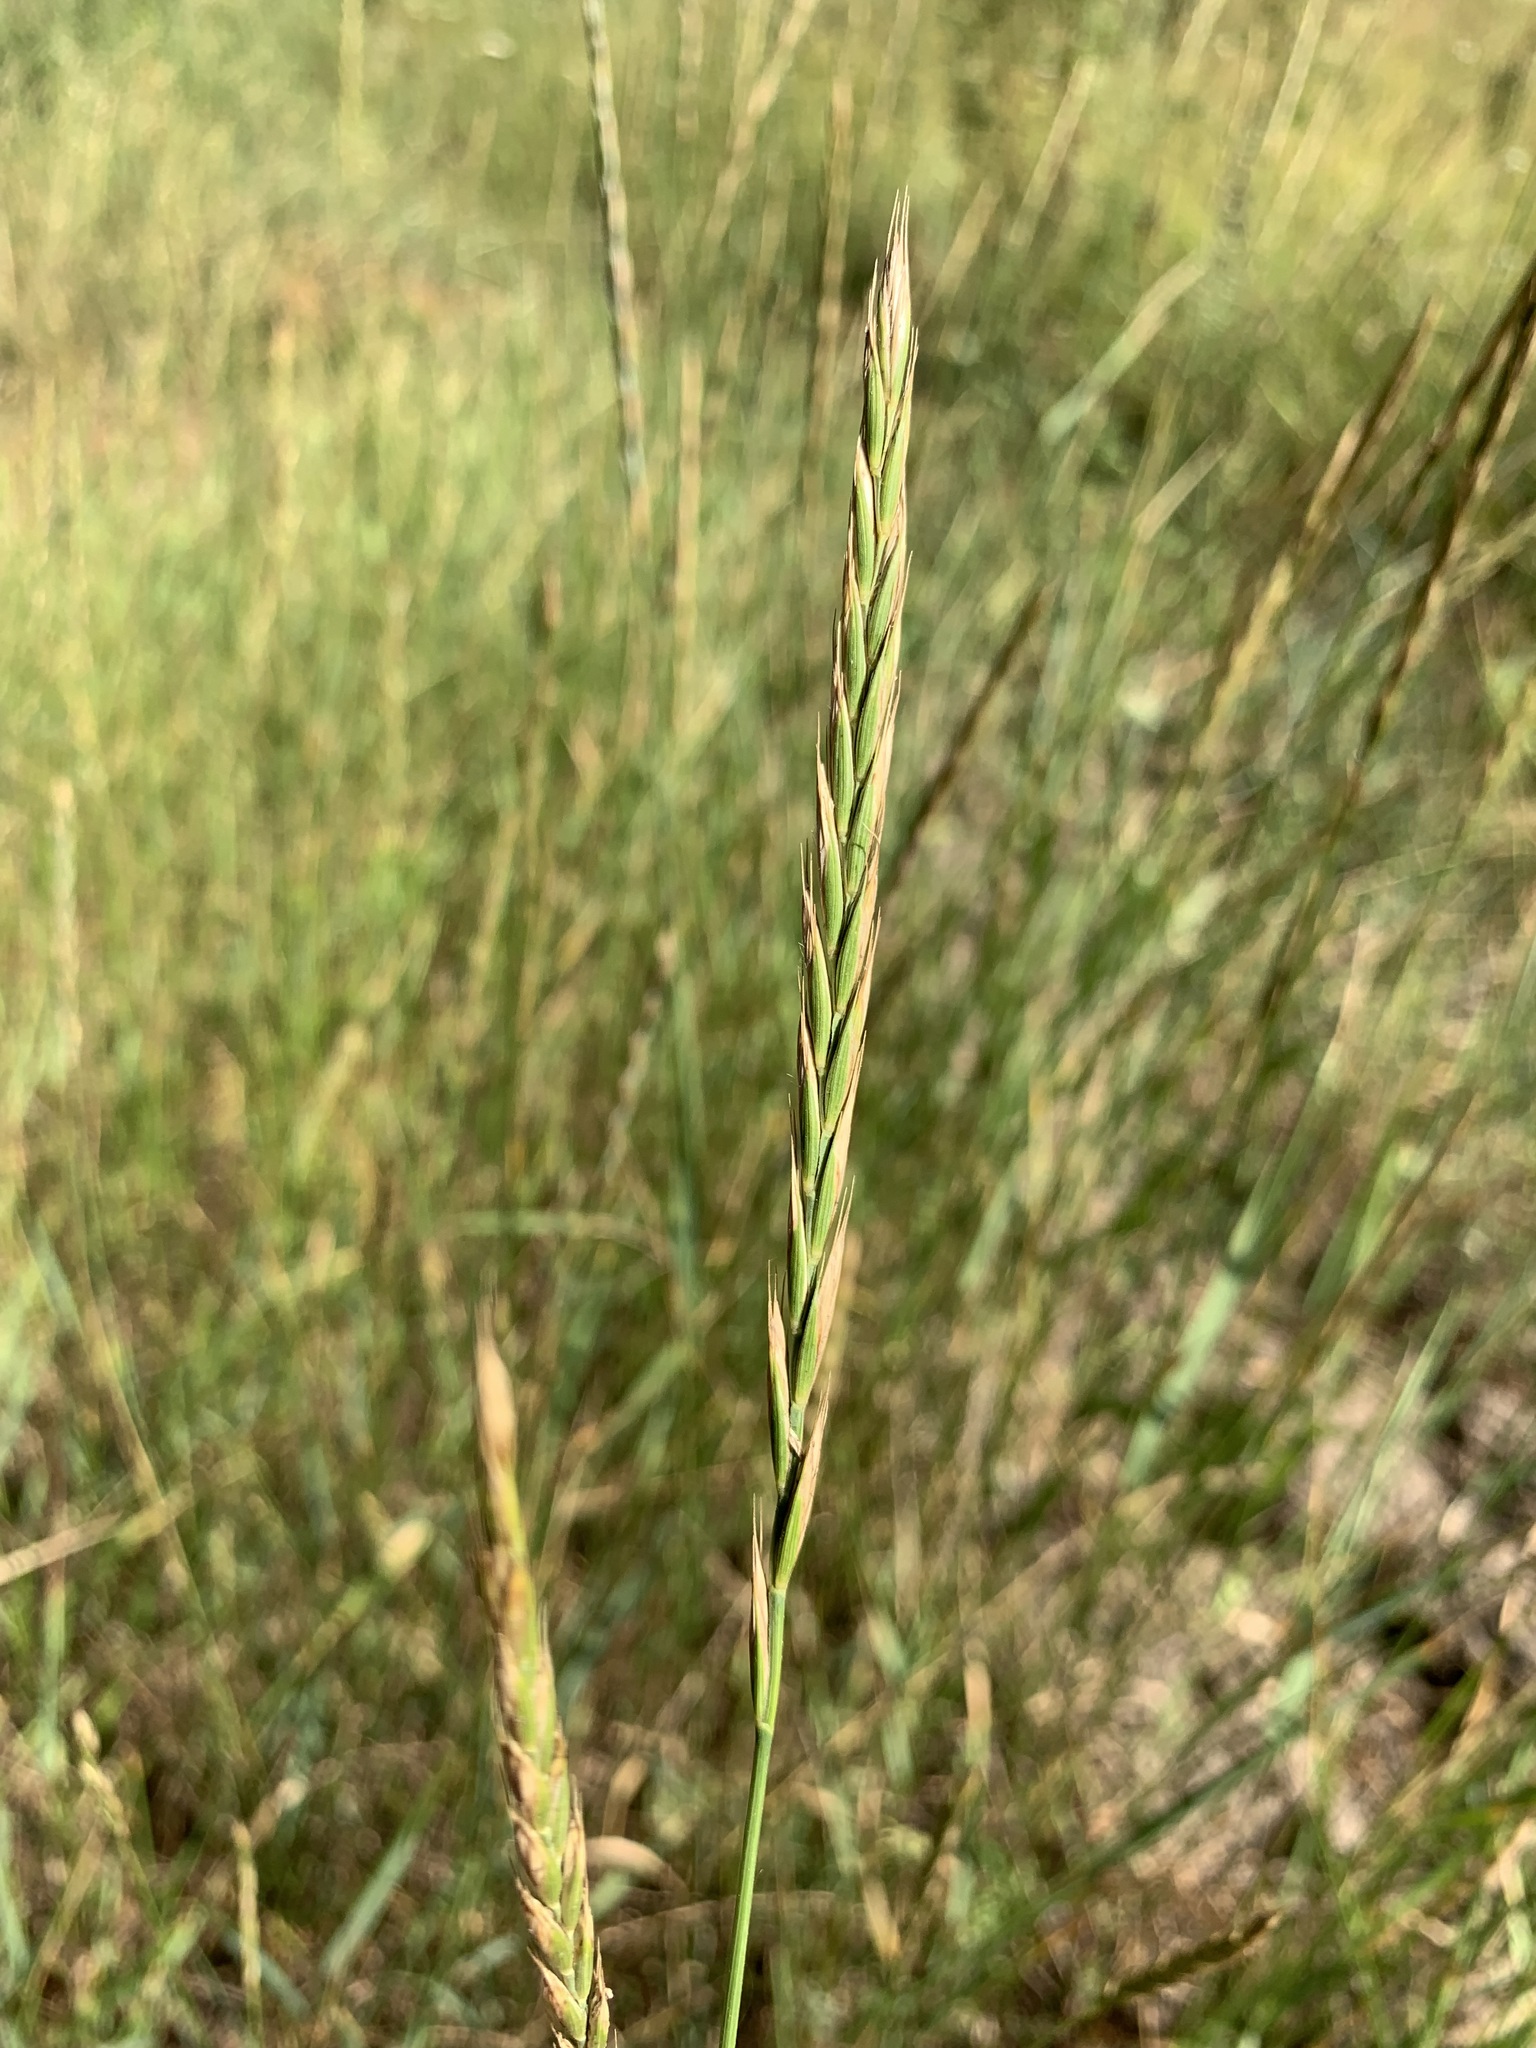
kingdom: Plantae
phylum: Tracheophyta
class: Liliopsida
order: Poales
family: Poaceae
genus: Elymus
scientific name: Elymus repens
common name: Quackgrass
